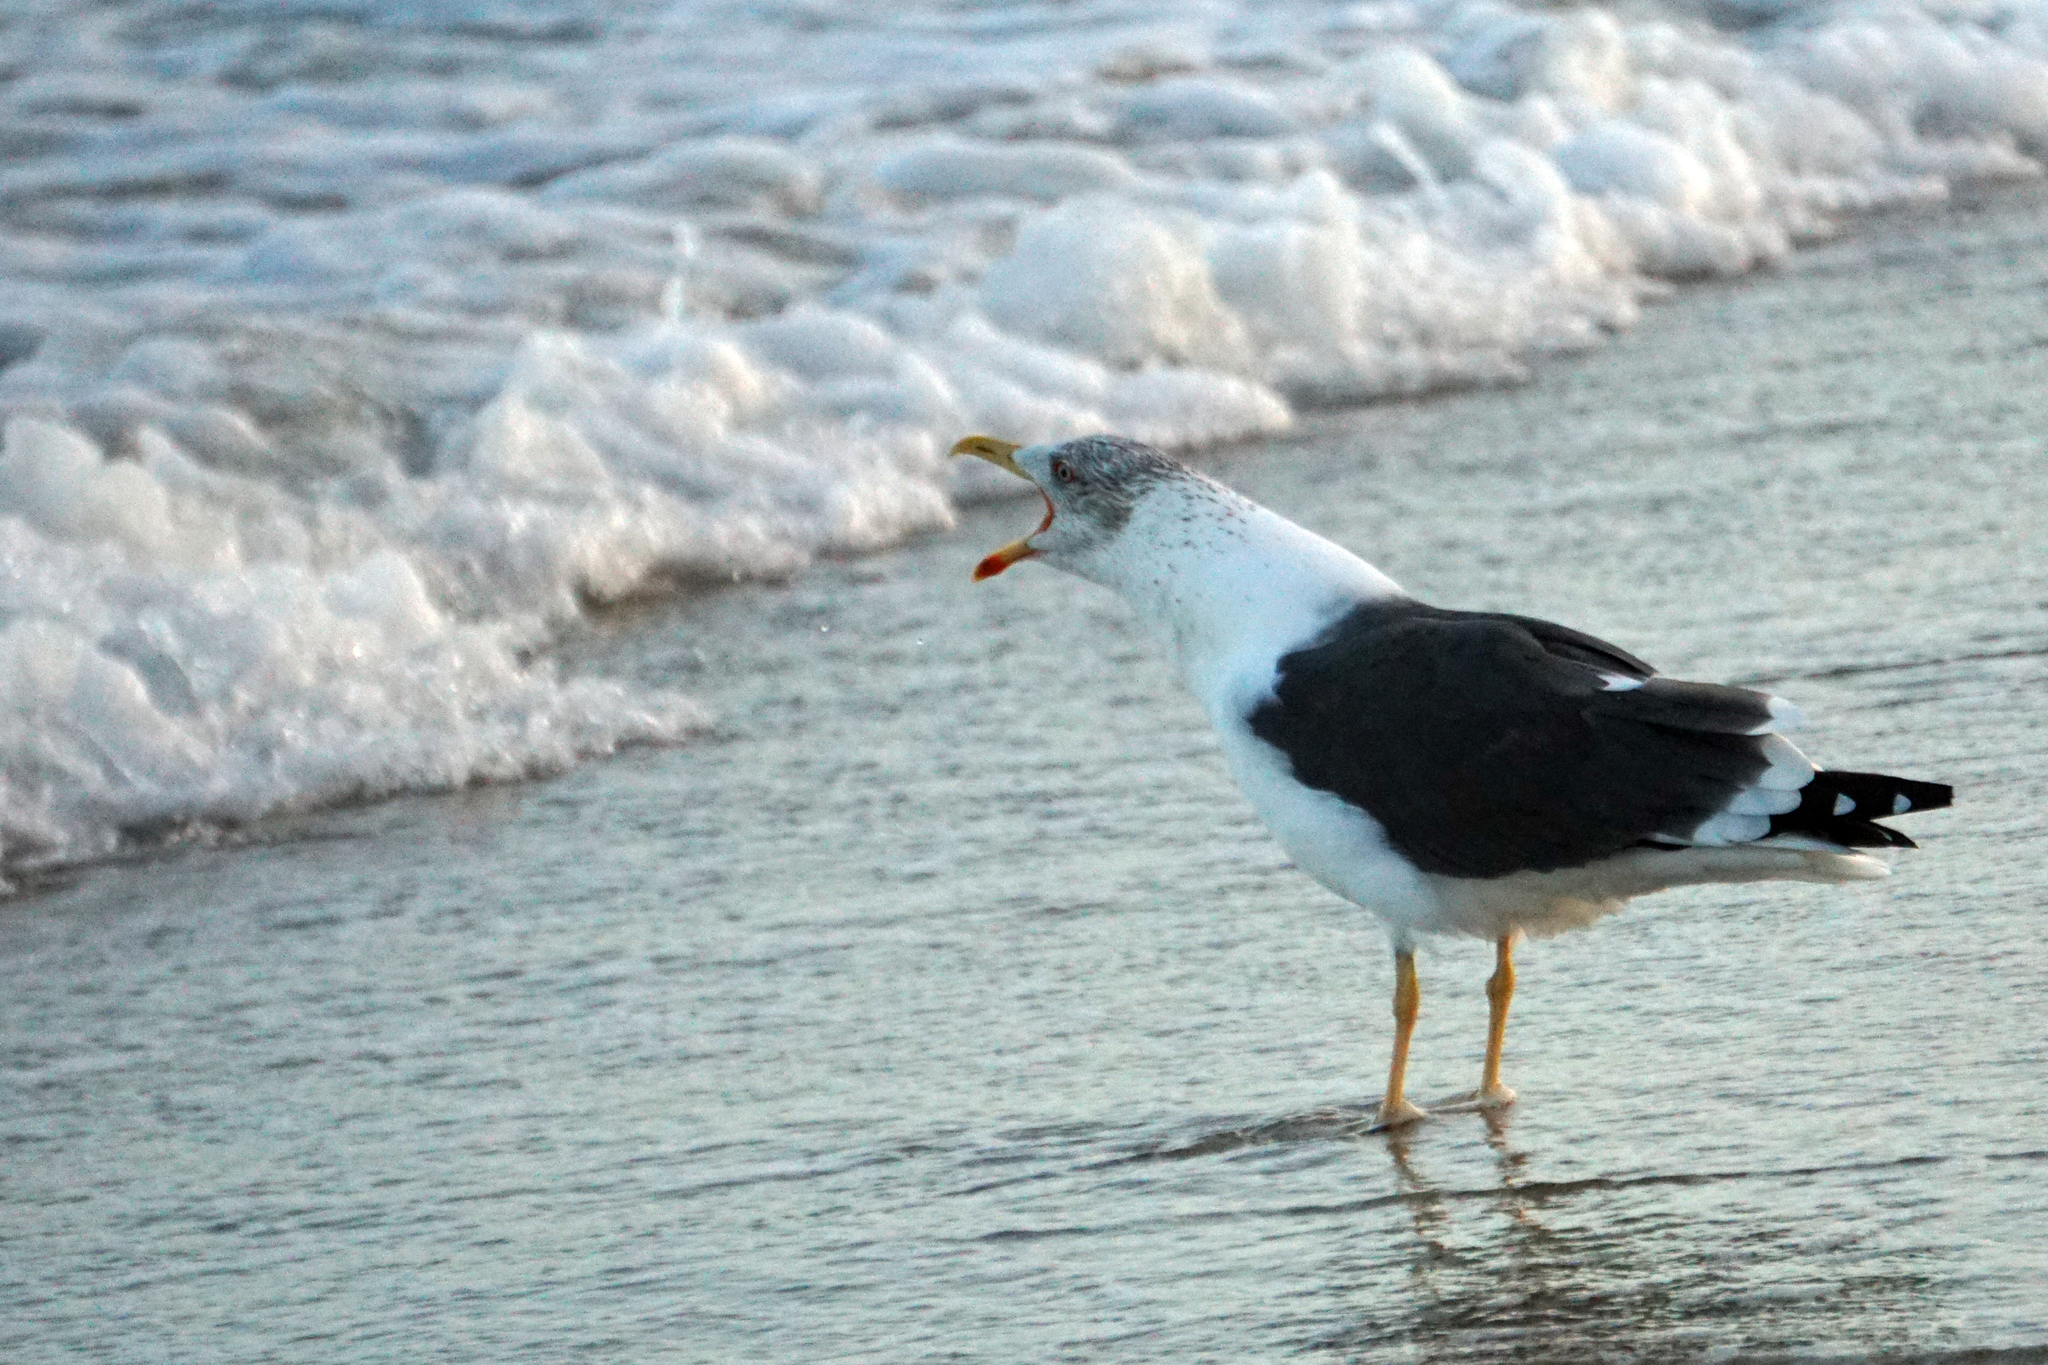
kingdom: Animalia
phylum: Chordata
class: Aves
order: Charadriiformes
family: Laridae
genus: Larus
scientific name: Larus fuscus
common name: Lesser black-backed gull
